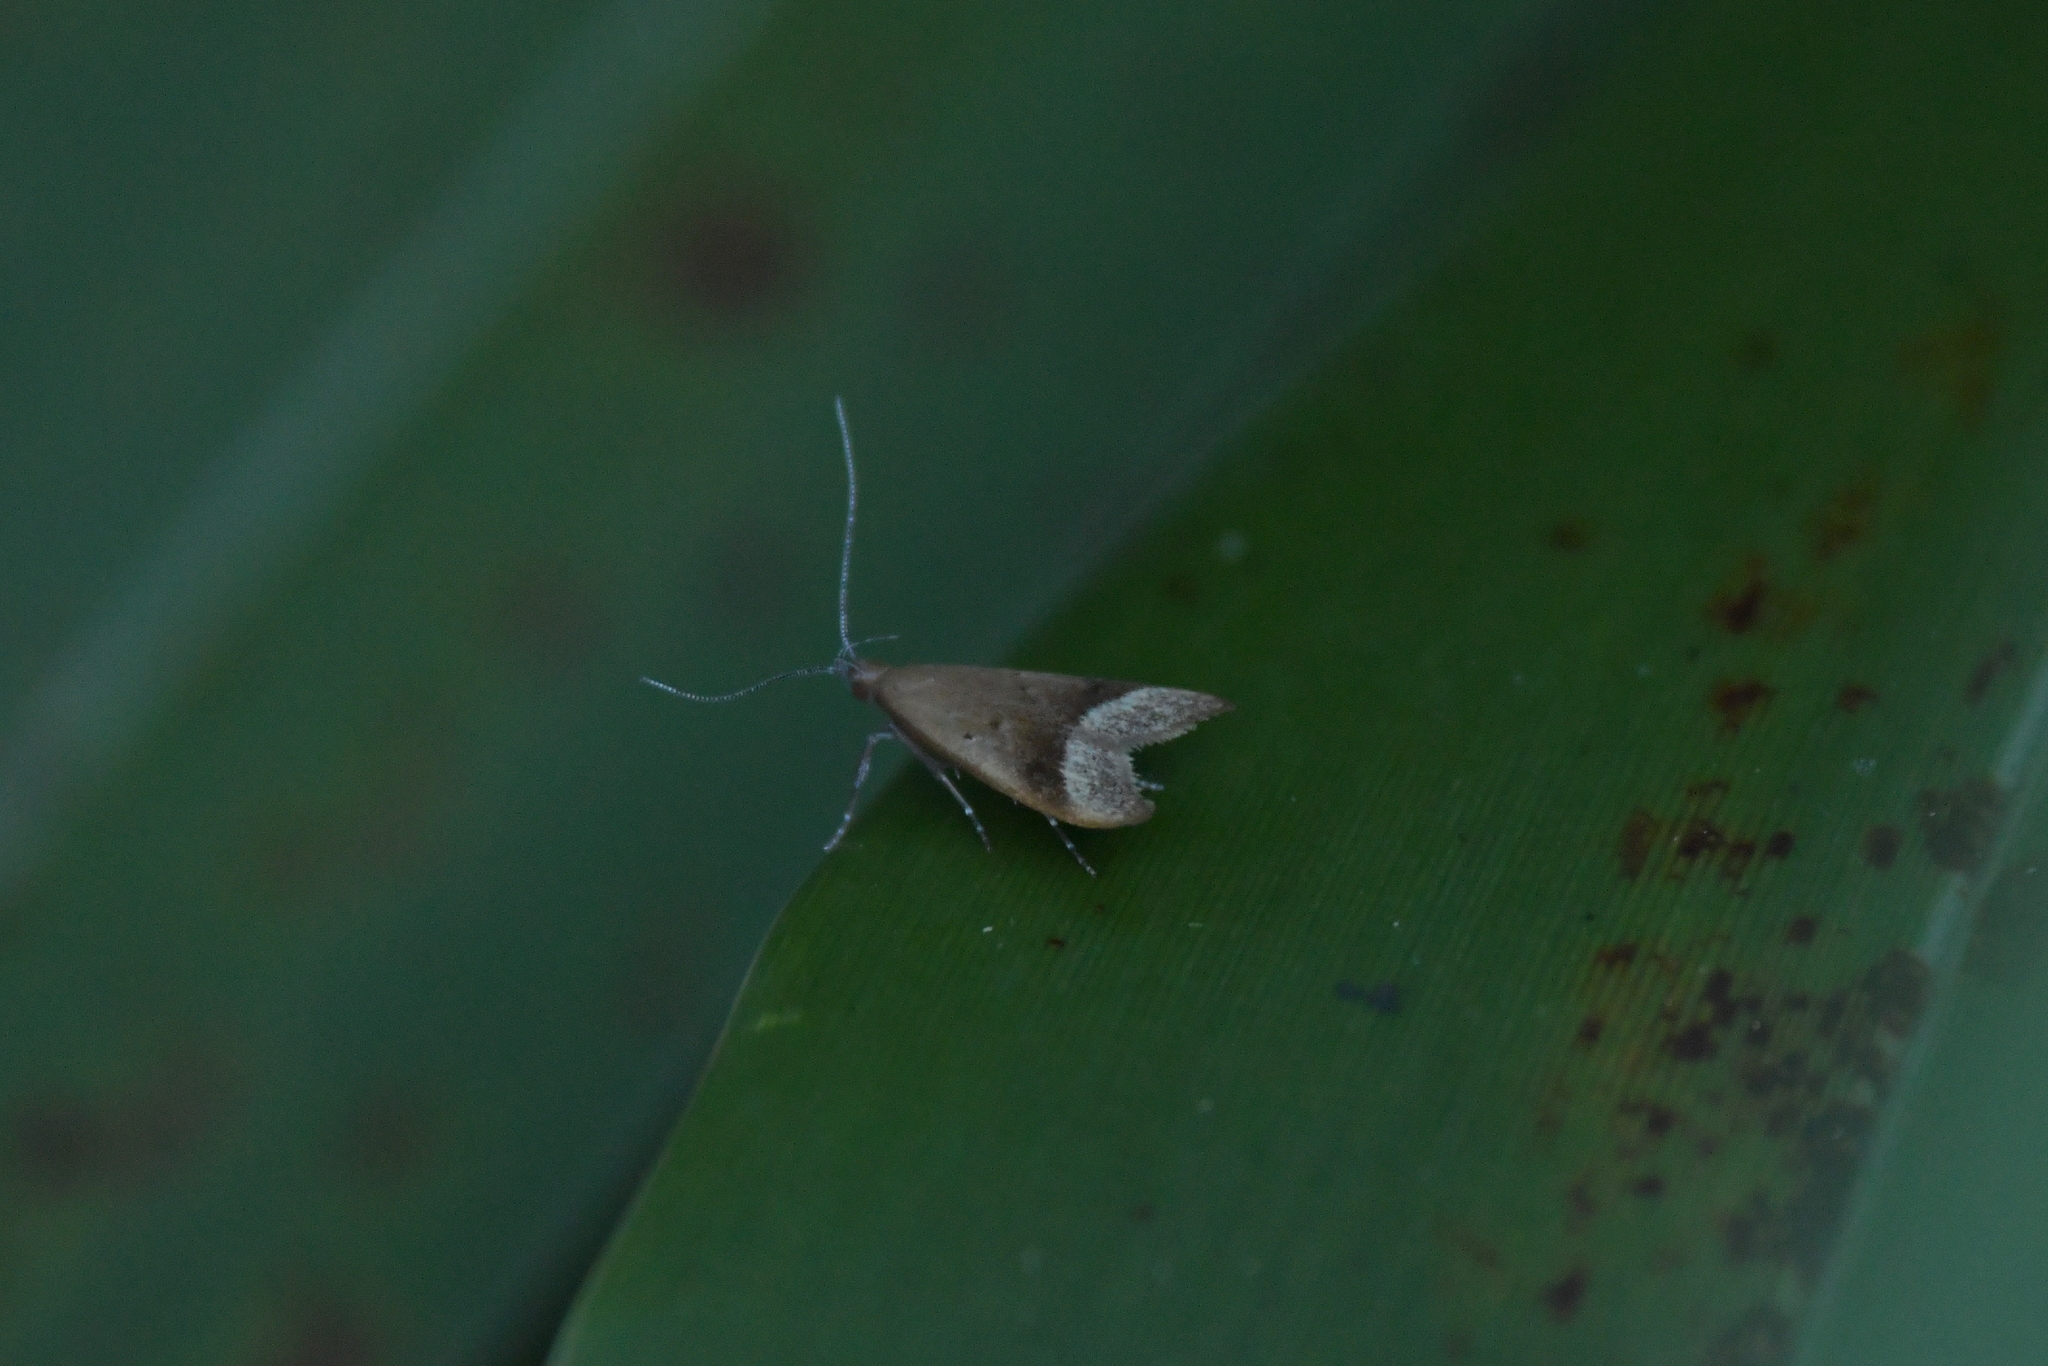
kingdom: Animalia
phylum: Arthropoda
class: Insecta
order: Lepidoptera
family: Oecophoridae
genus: Gymnobathra
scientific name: Gymnobathra hyetodes
